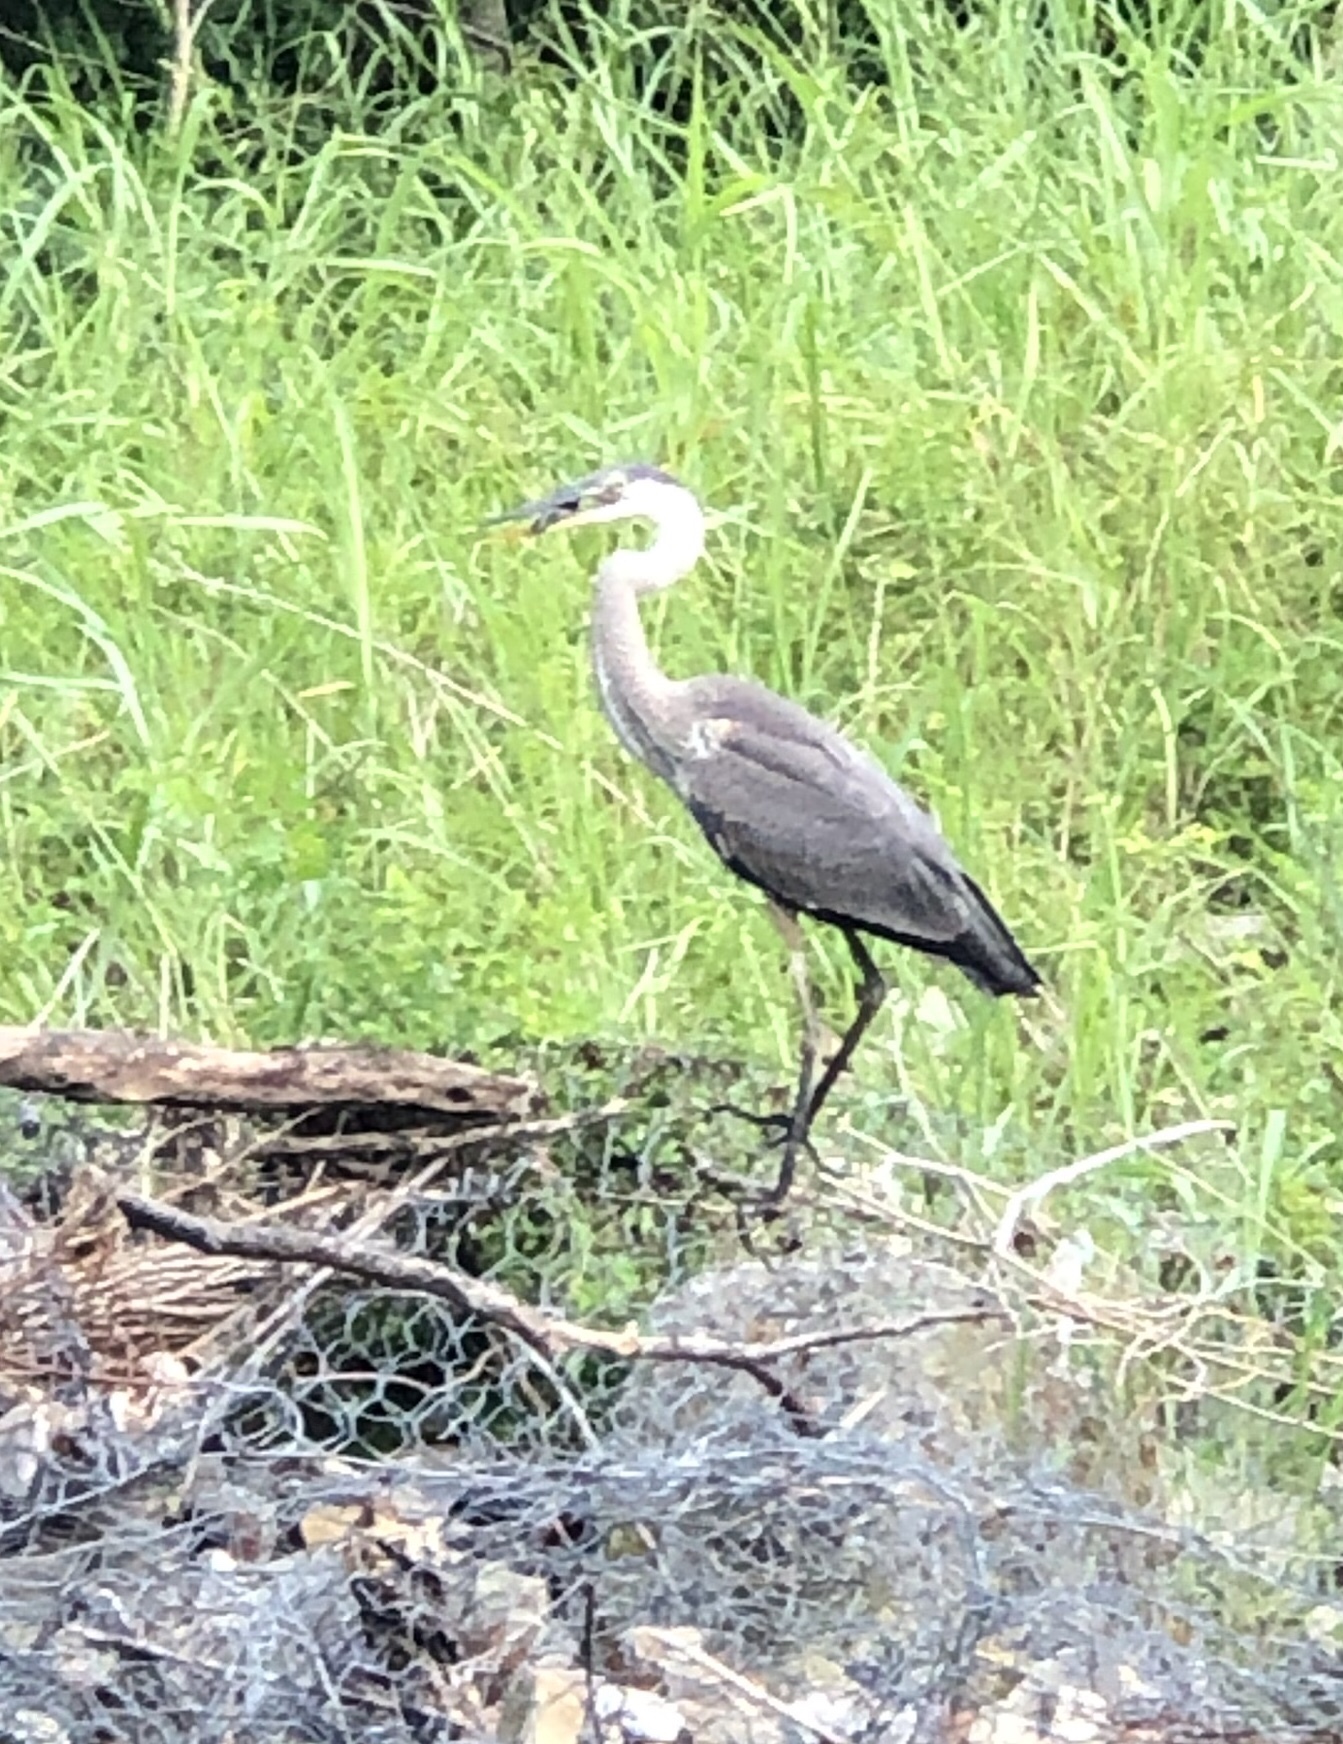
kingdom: Animalia
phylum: Chordata
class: Aves
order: Pelecaniformes
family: Ardeidae
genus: Ardea
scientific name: Ardea herodias
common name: Great blue heron
